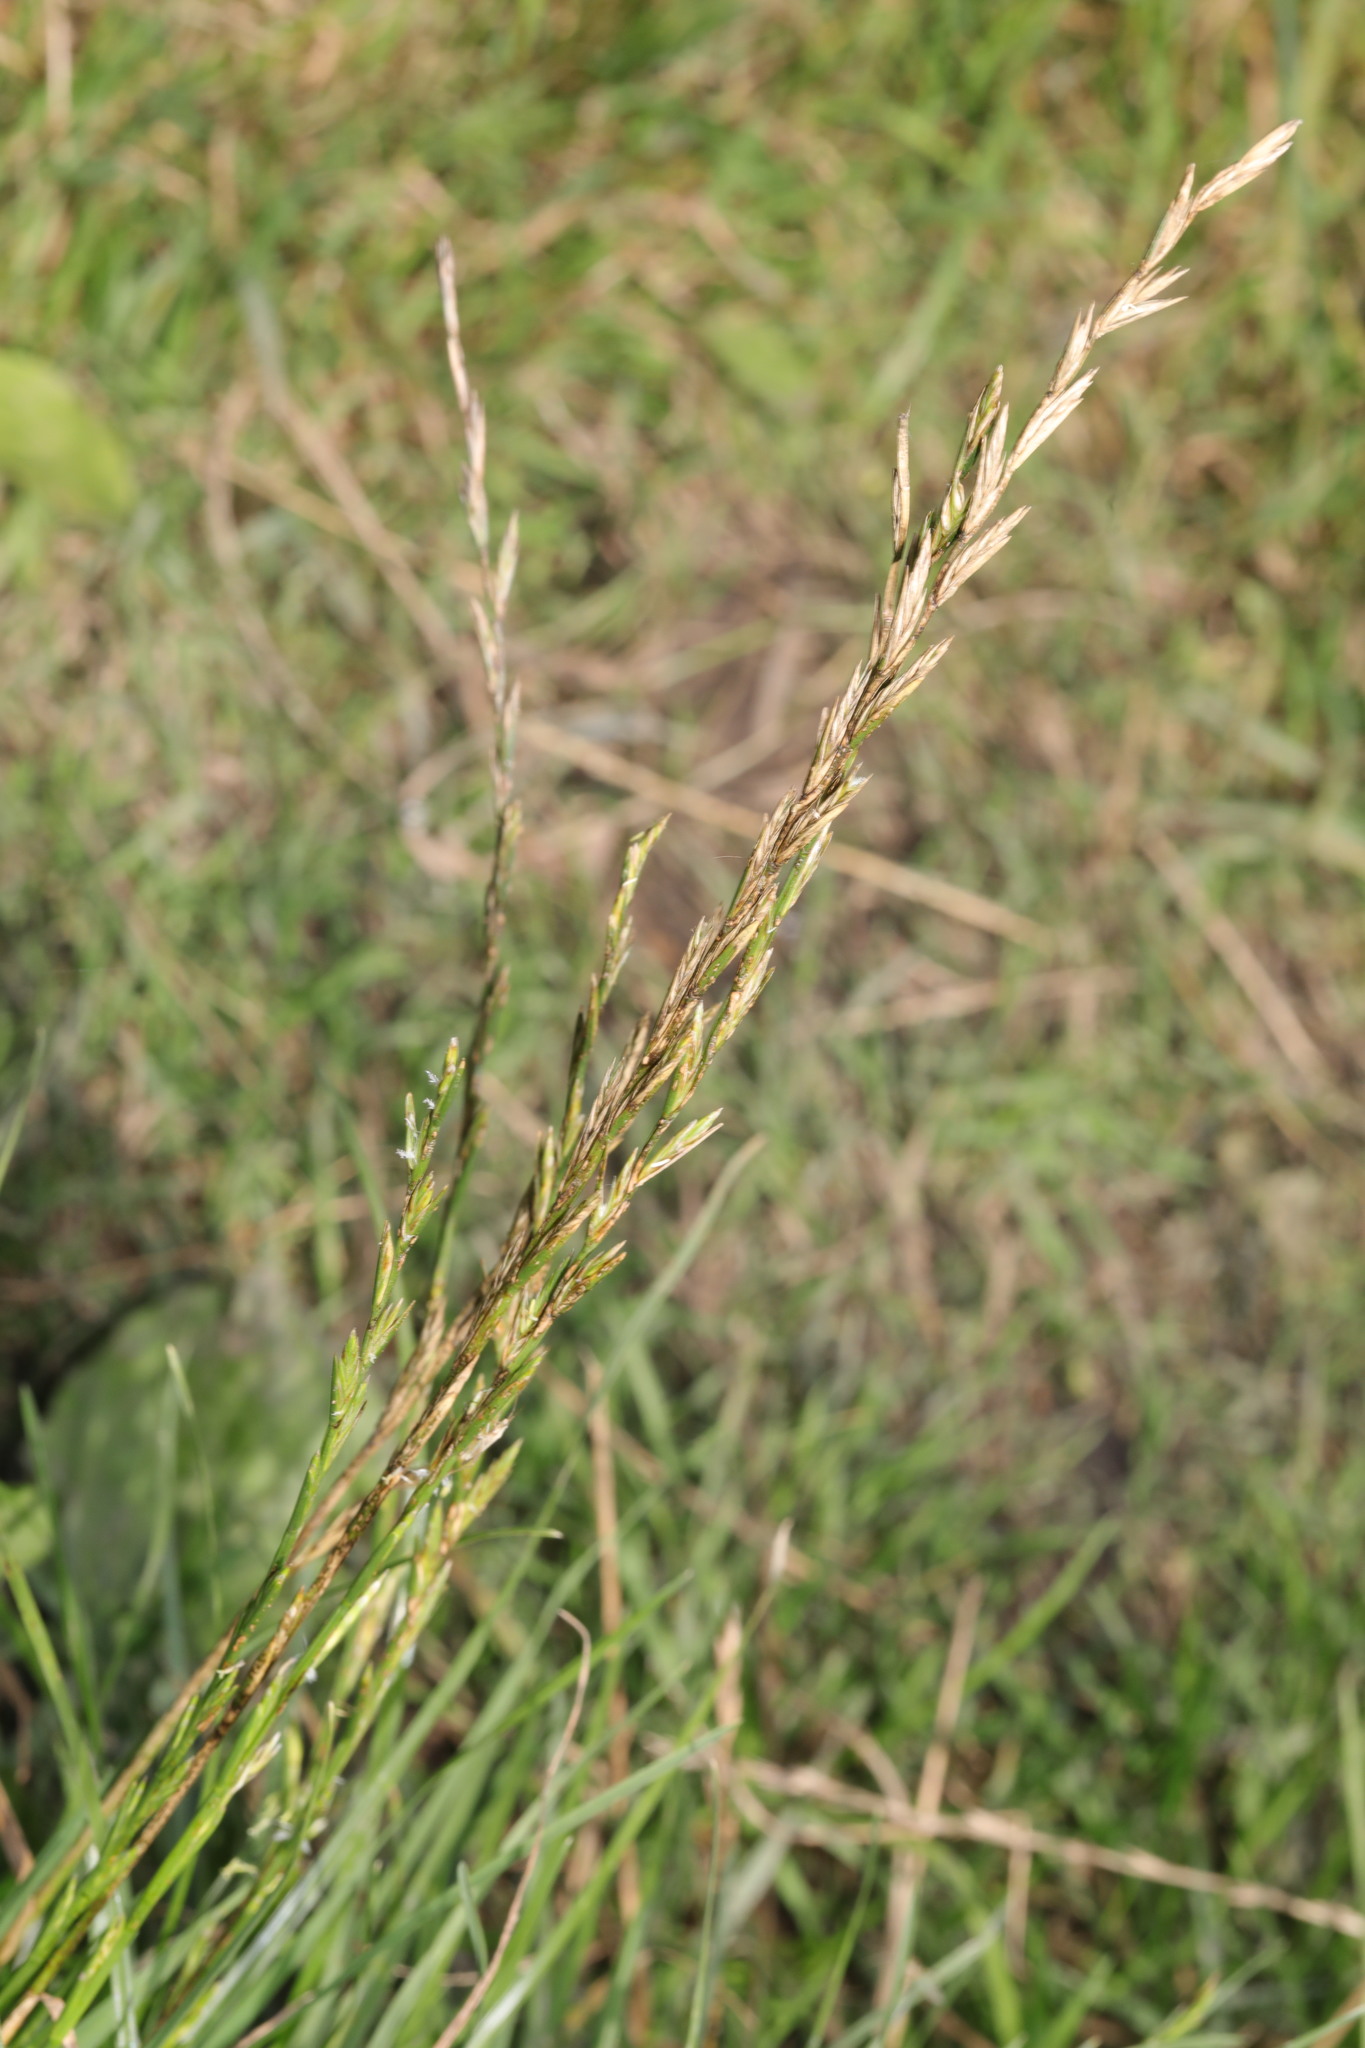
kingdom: Plantae
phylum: Tracheophyta
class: Liliopsida
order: Poales
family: Poaceae
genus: Lolium
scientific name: Lolium perenne
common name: Perennial ryegrass
